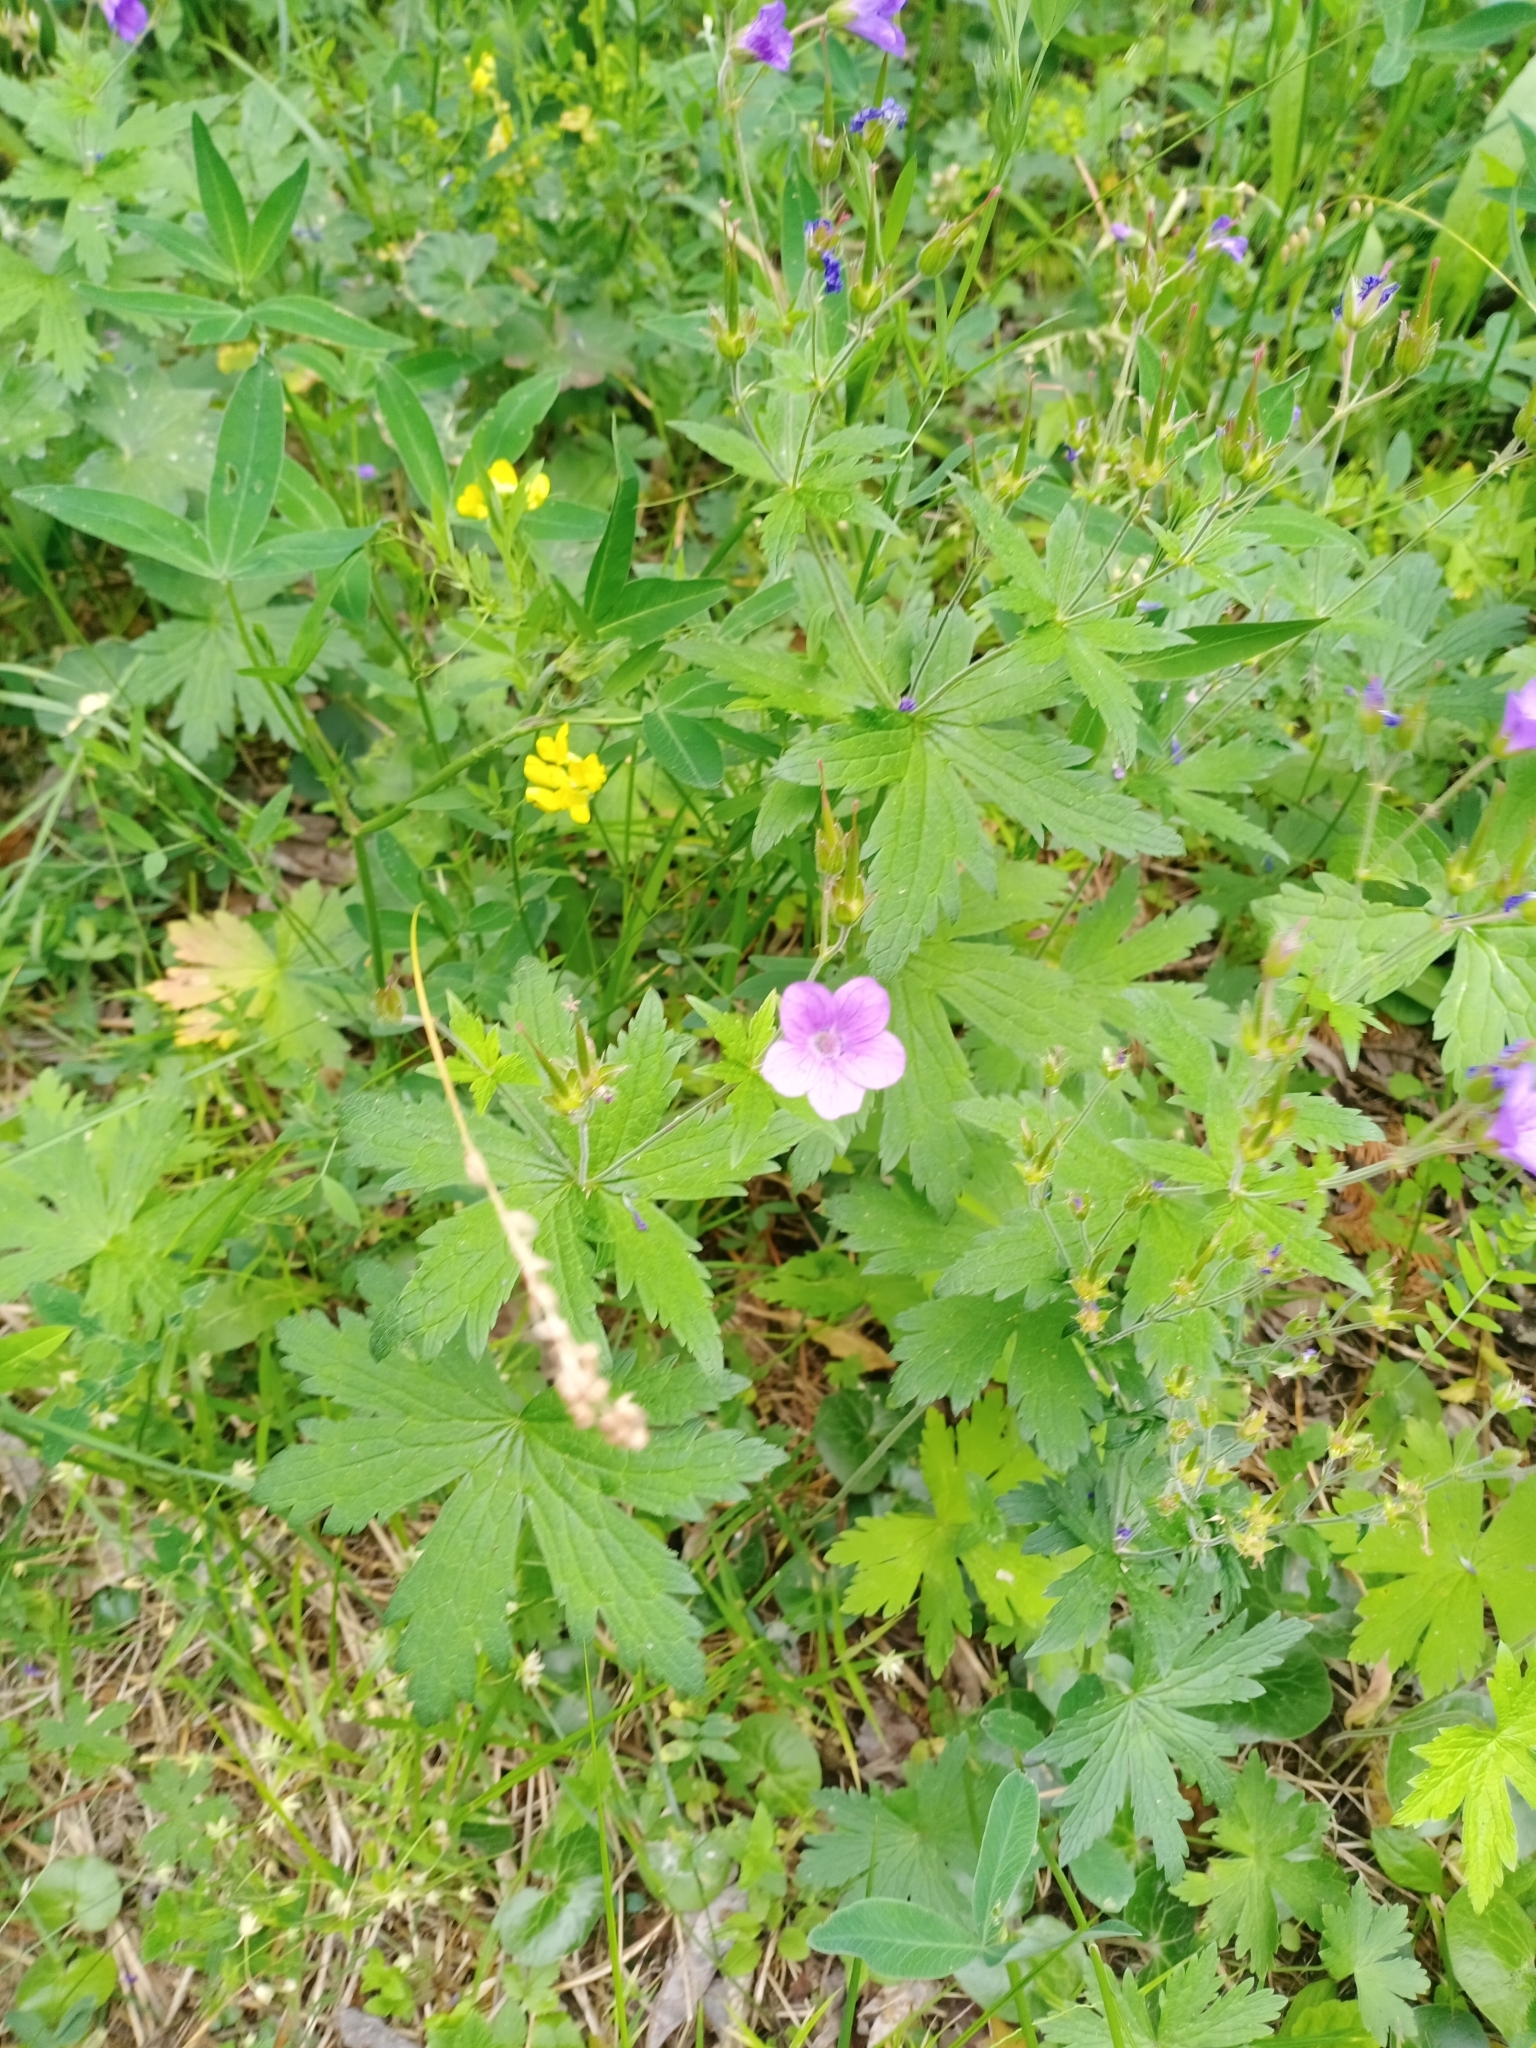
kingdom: Plantae
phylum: Tracheophyta
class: Magnoliopsida
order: Geraniales
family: Geraniaceae
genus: Geranium
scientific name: Geranium sylvaticum
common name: Wood crane's-bill
